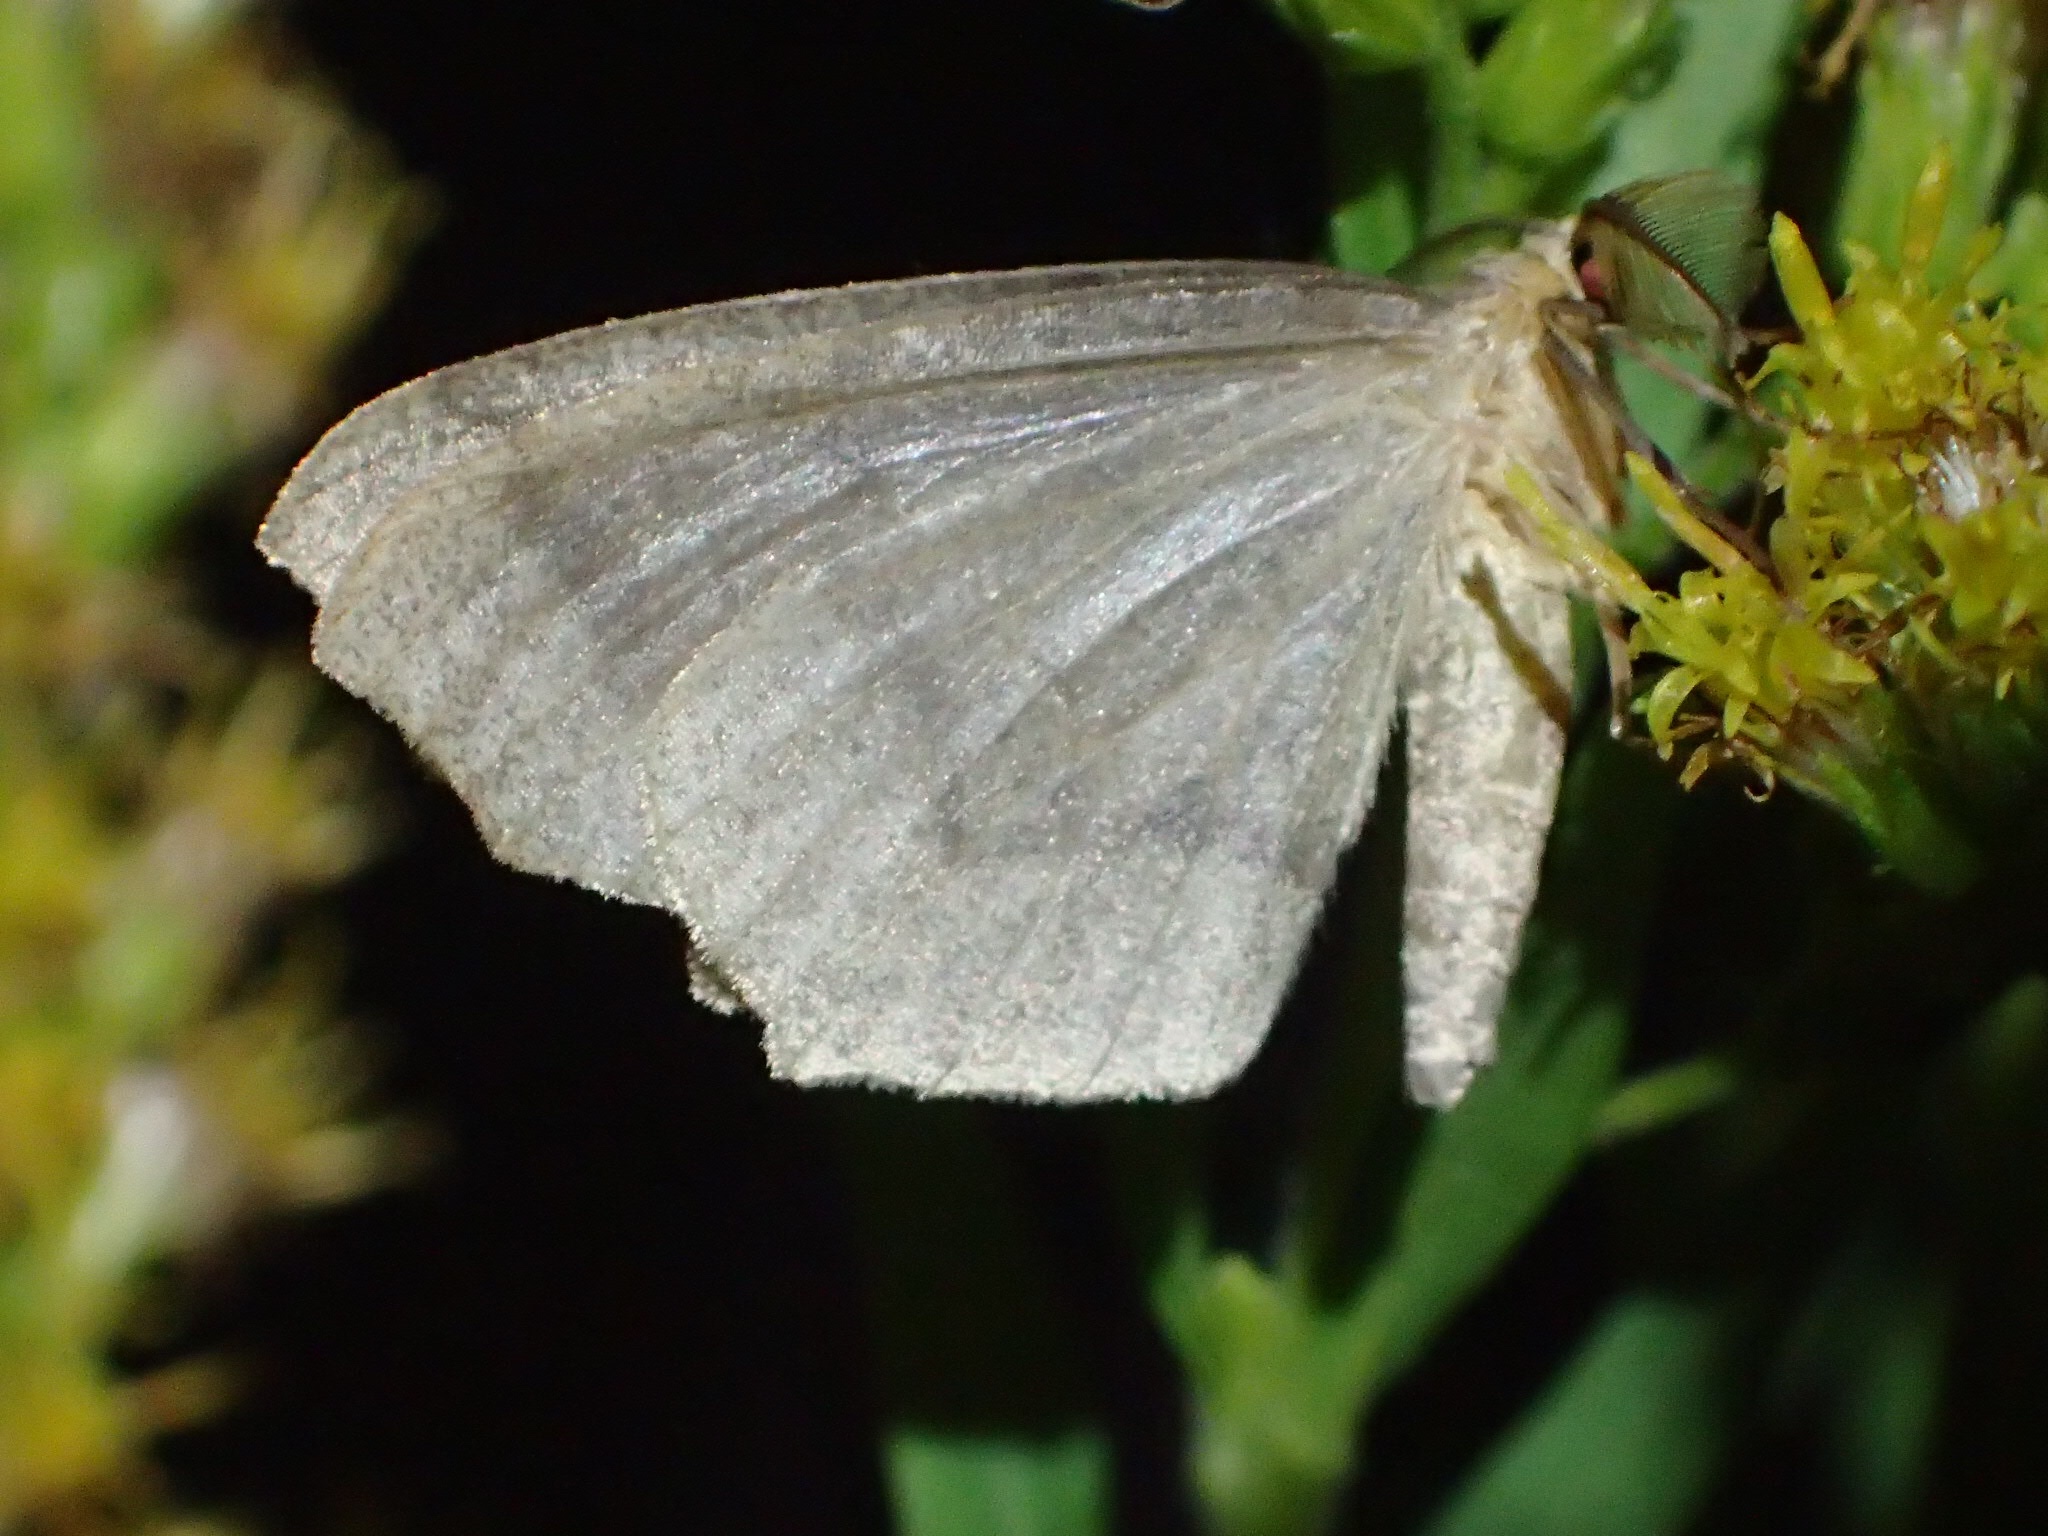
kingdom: Animalia
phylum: Arthropoda
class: Insecta
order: Lepidoptera
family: Geometridae
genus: Lambdina
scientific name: Lambdina fiscellaria
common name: Hemlock looper
